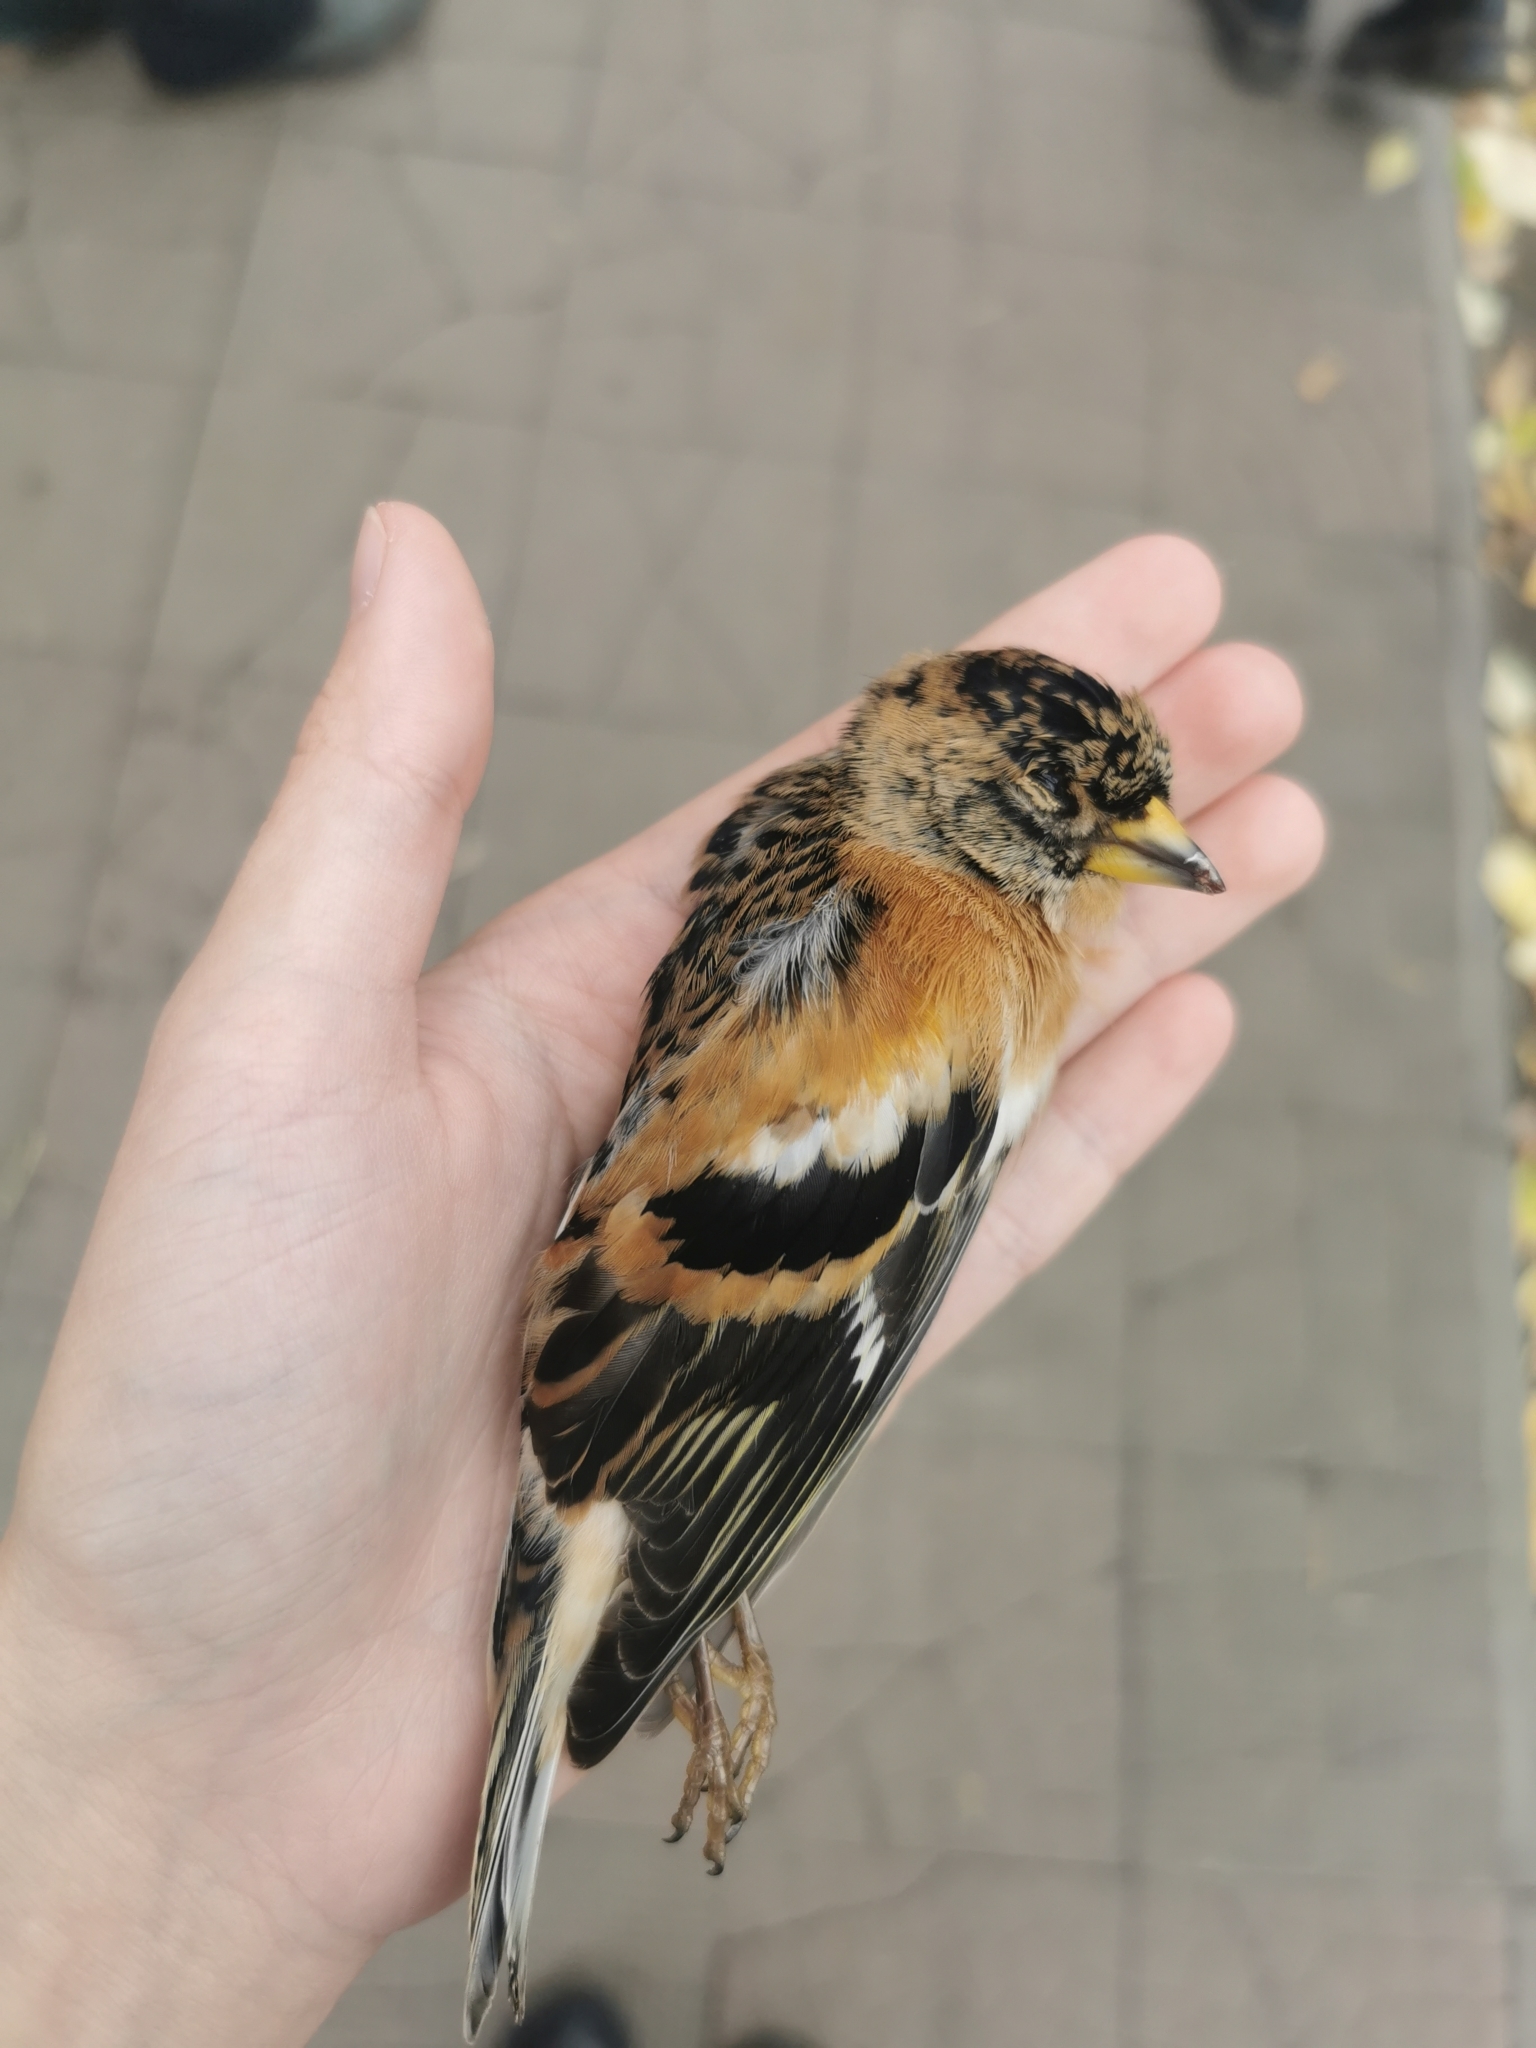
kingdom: Animalia
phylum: Chordata
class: Aves
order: Passeriformes
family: Fringillidae
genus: Fringilla
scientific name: Fringilla montifringilla
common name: Brambling
